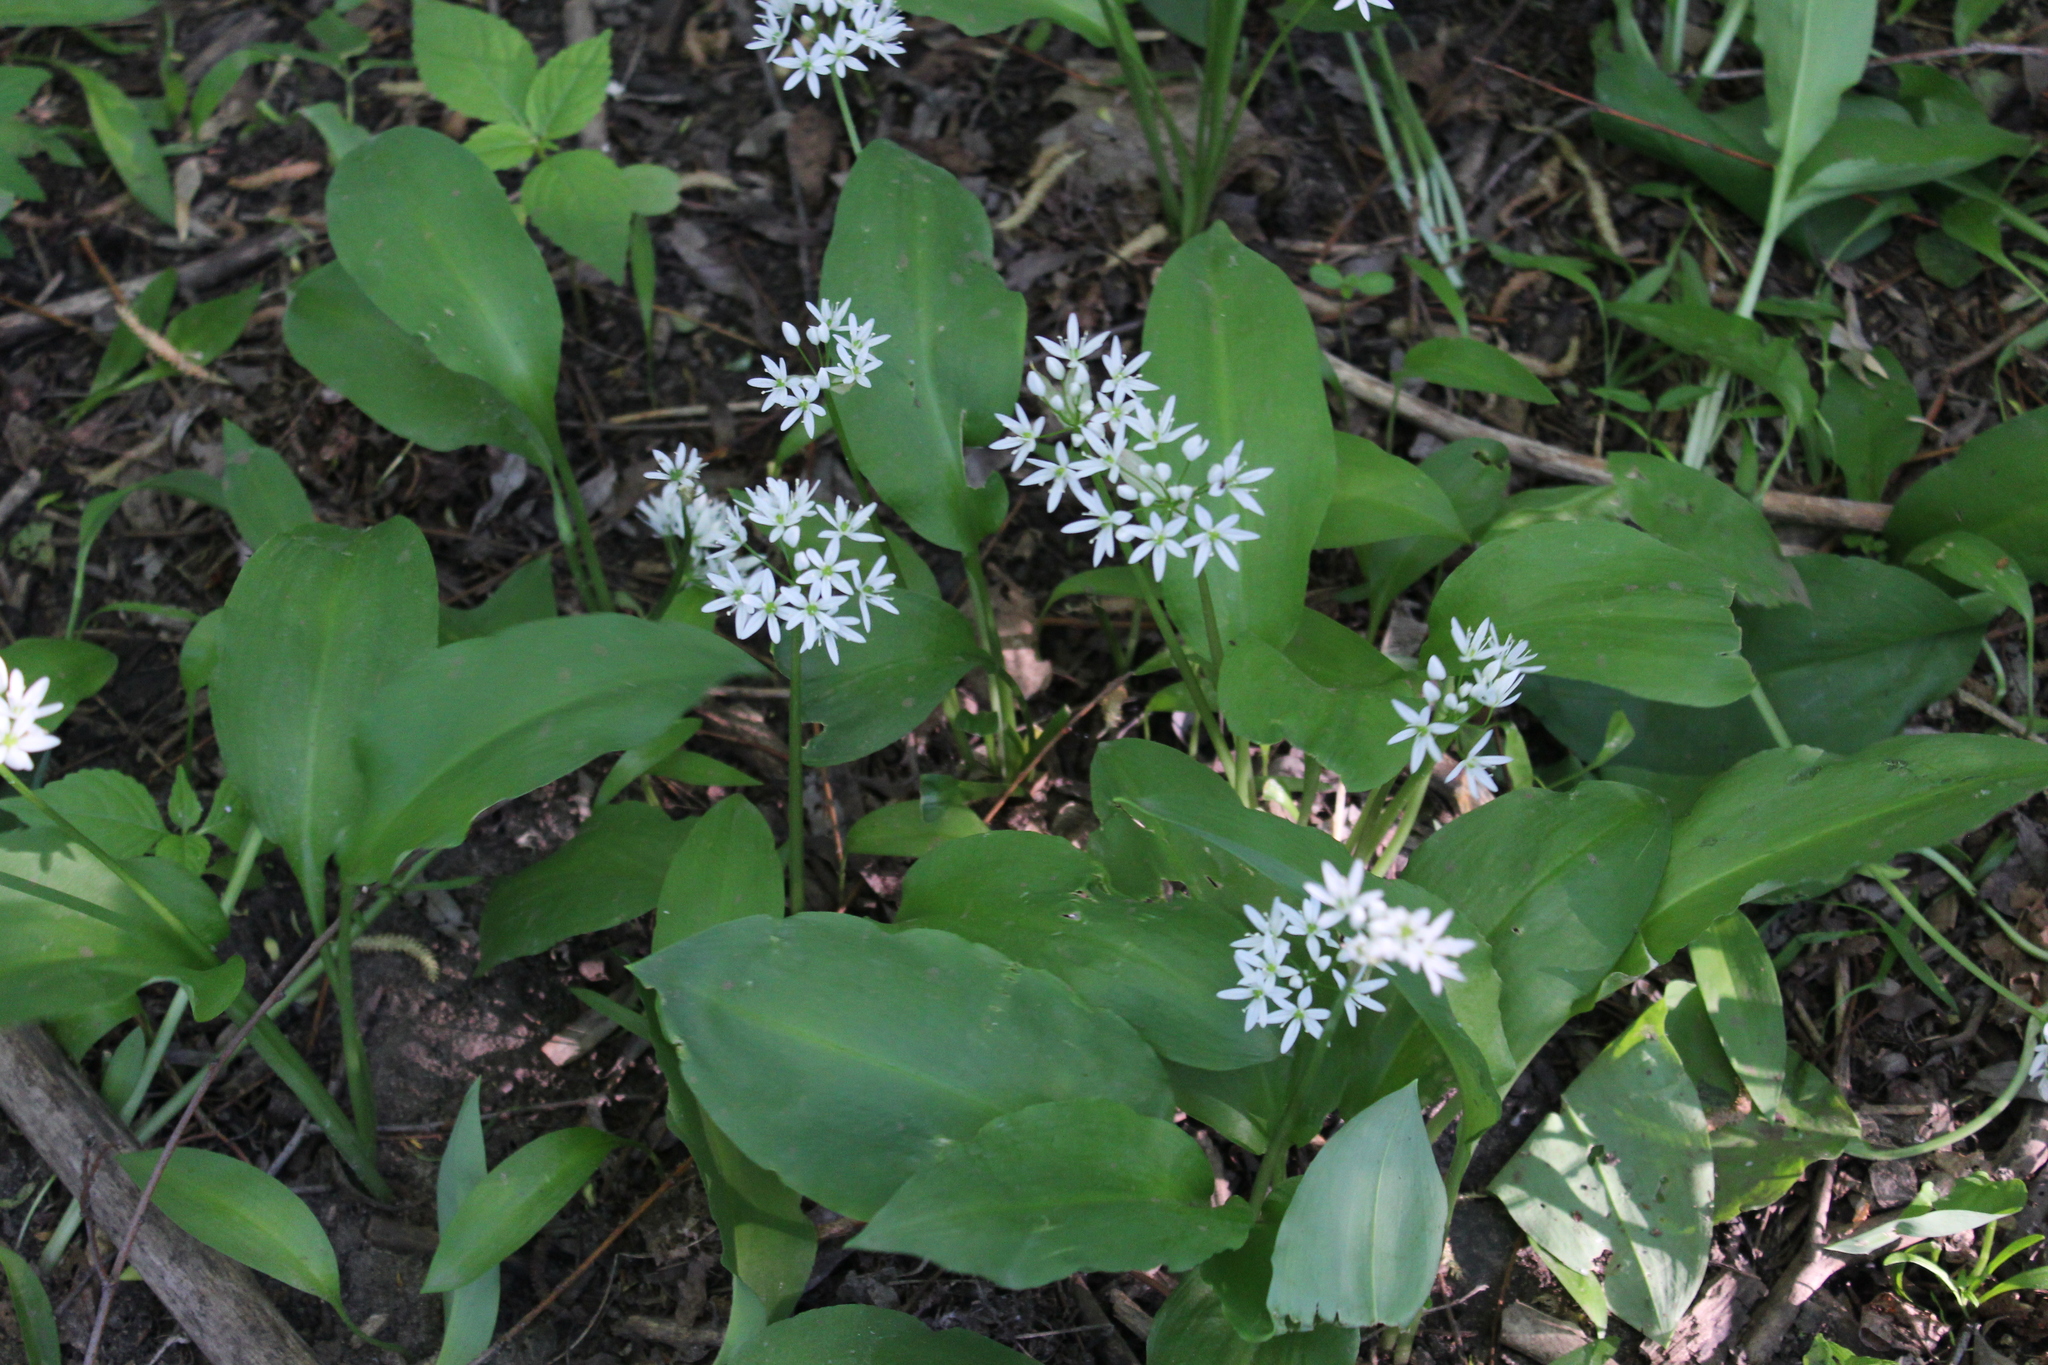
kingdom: Plantae
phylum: Tracheophyta
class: Liliopsida
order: Asparagales
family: Amaryllidaceae
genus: Allium
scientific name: Allium ursinum
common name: Ramsons
